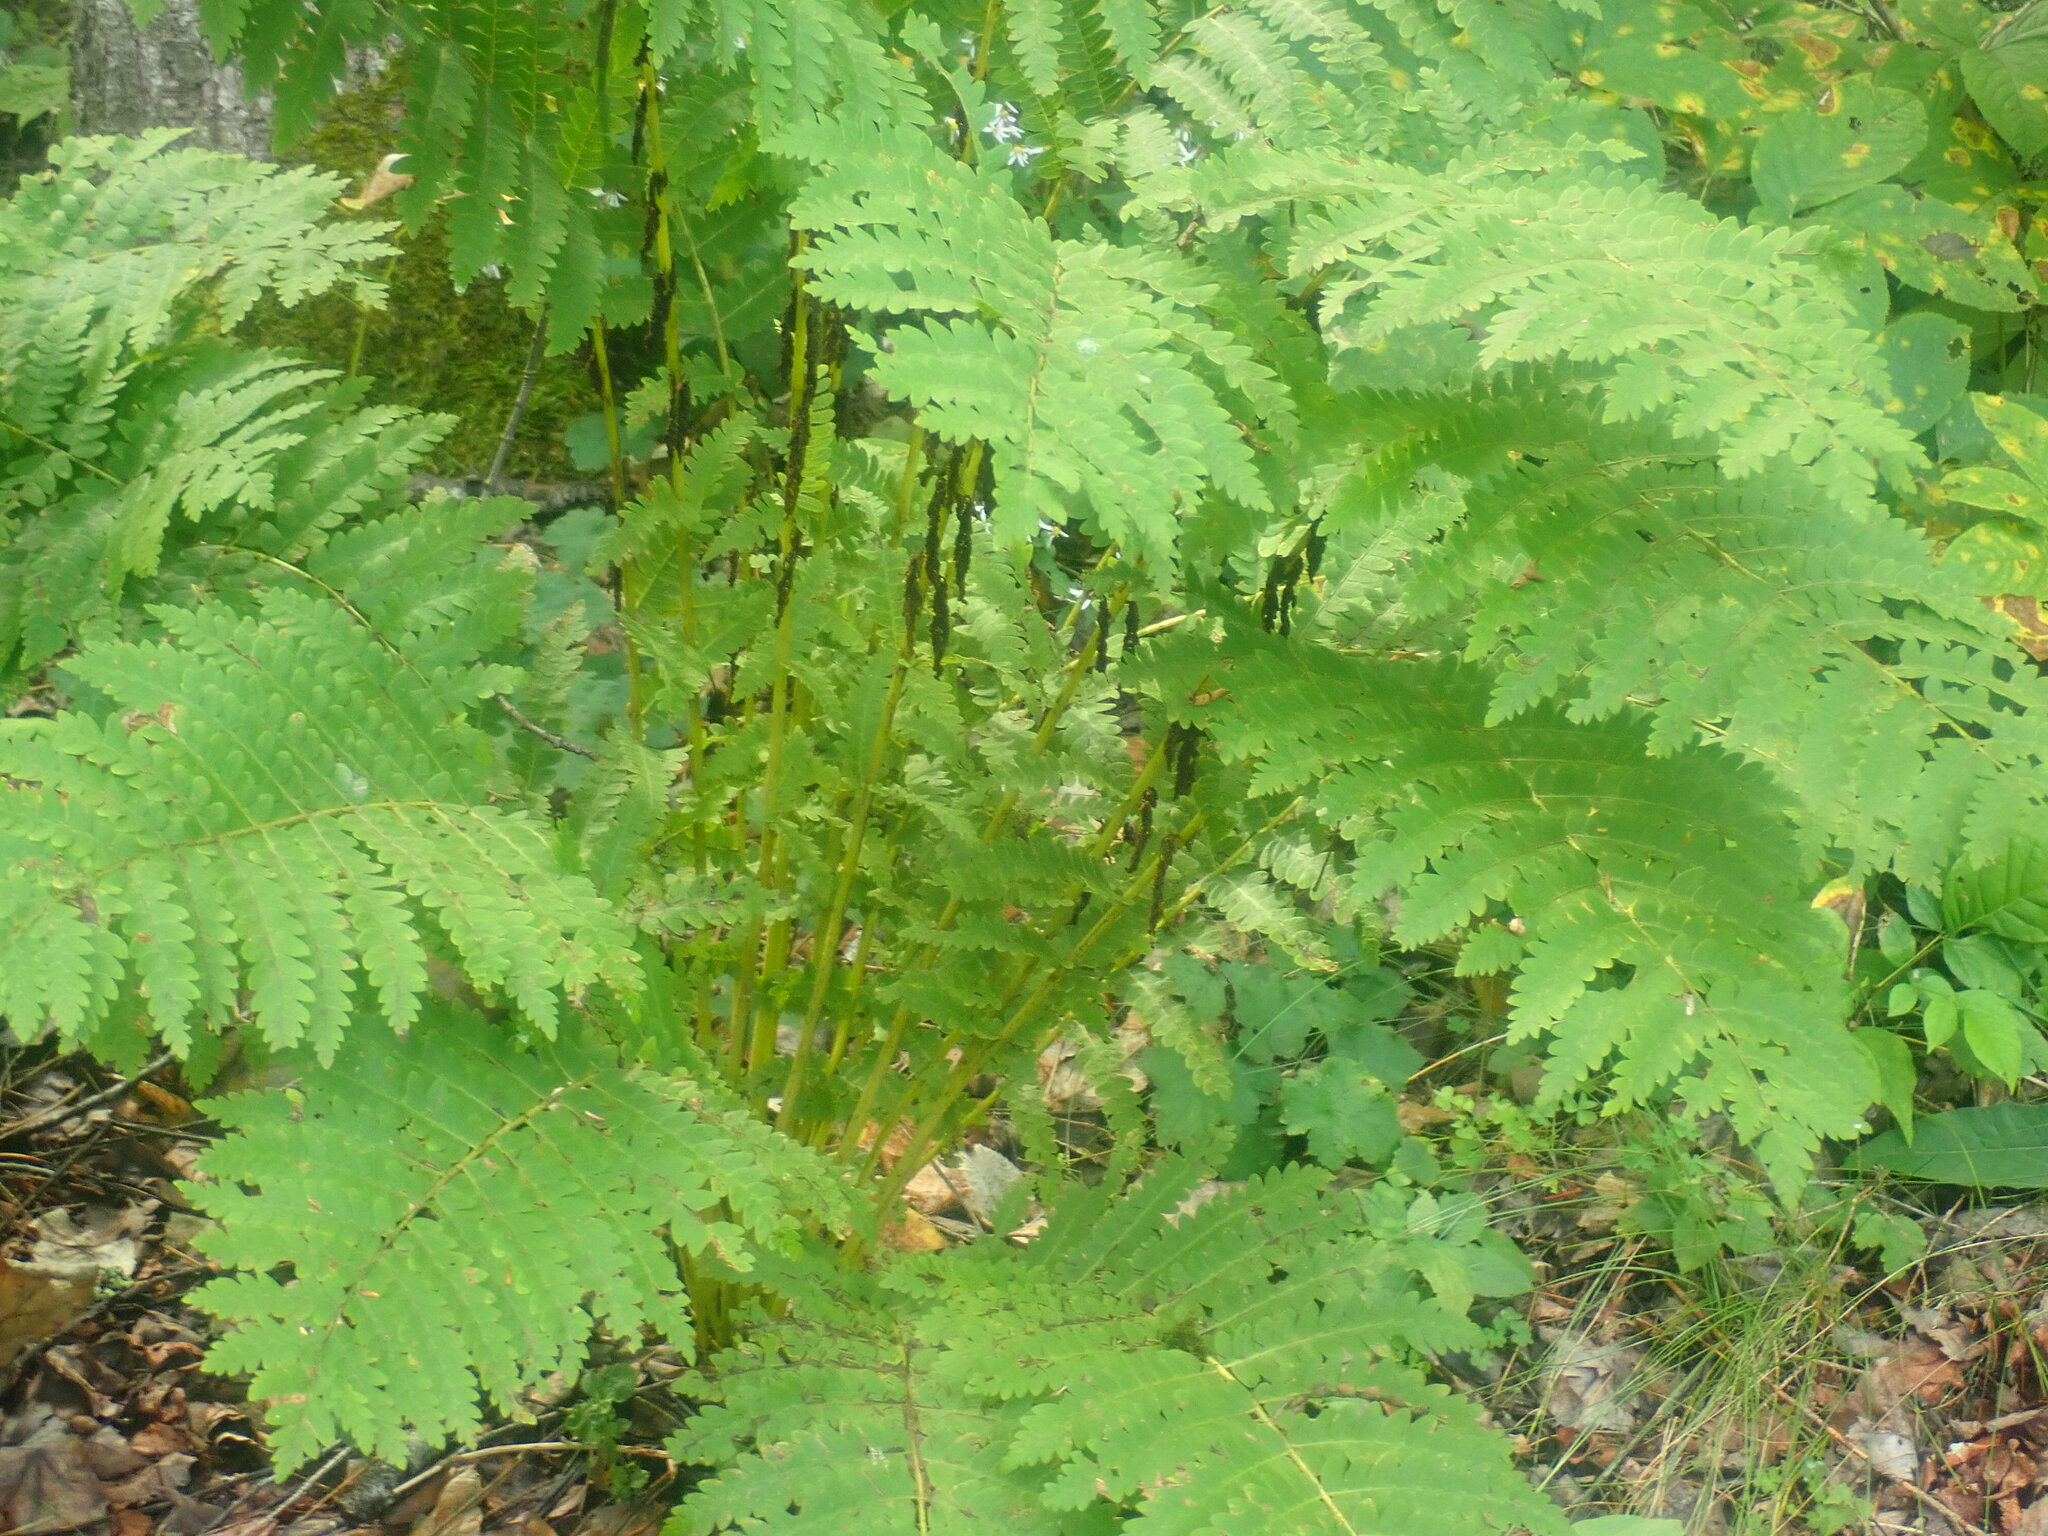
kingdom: Plantae
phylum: Tracheophyta
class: Polypodiopsida
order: Osmundales
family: Osmundaceae
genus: Claytosmunda
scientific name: Claytosmunda claytoniana
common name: Clayton's fern
